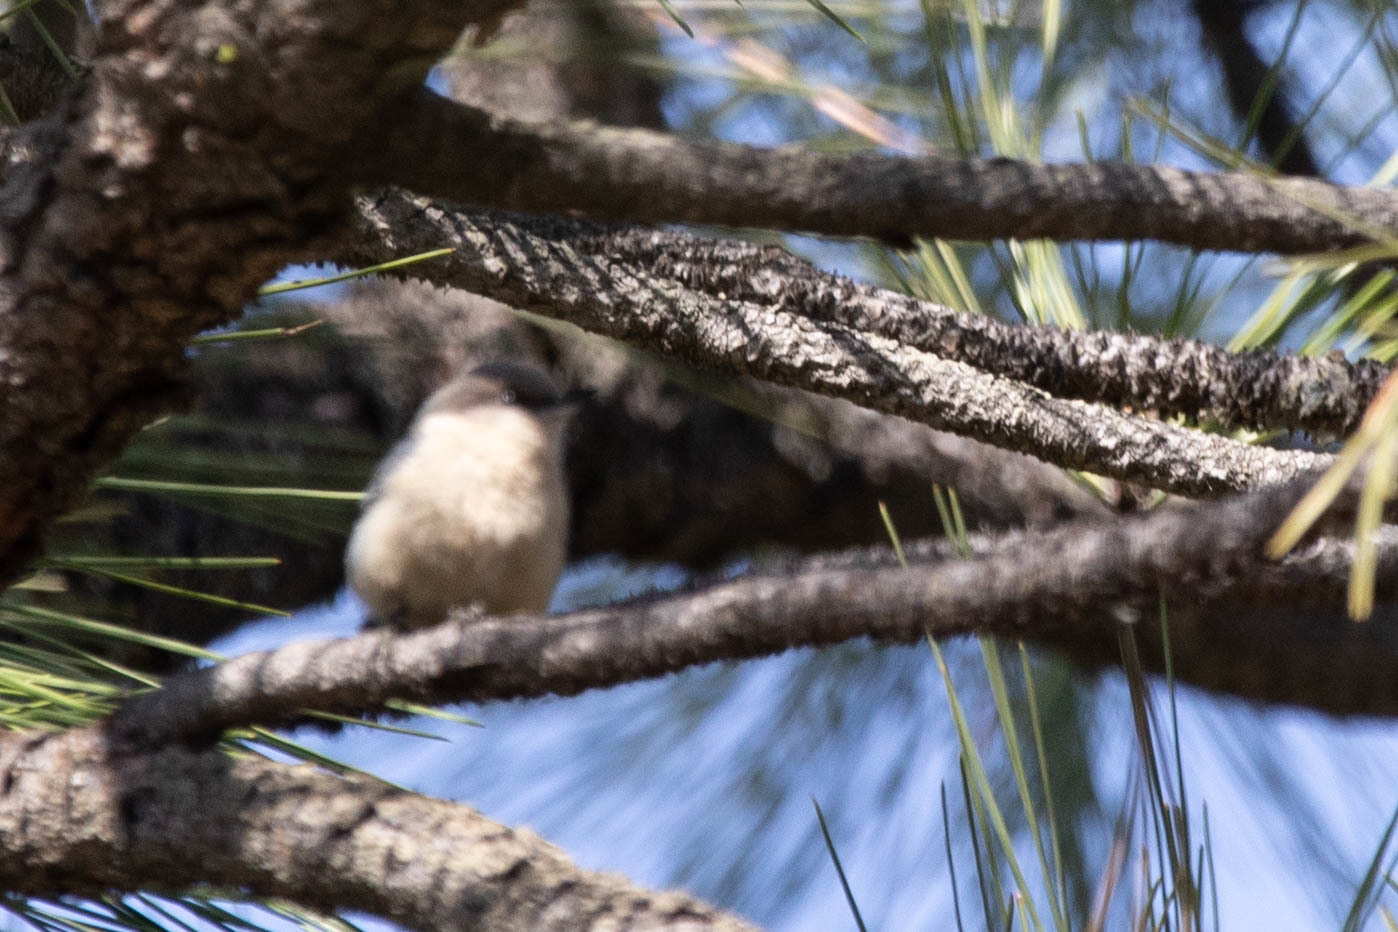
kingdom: Animalia
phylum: Chordata
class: Aves
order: Passeriformes
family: Sittidae
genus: Sitta
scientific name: Sitta pygmaea
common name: Pygmy nuthatch
